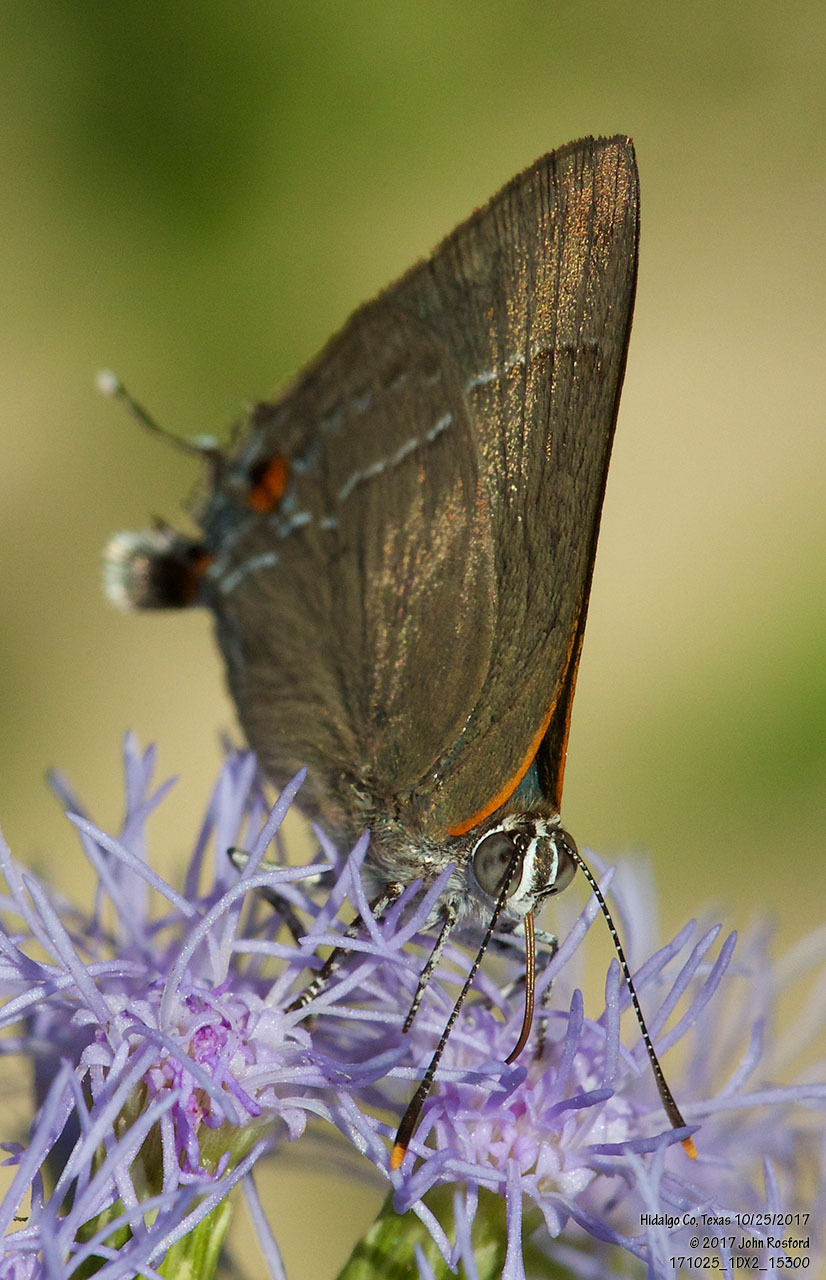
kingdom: Animalia
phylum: Arthropoda
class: Insecta
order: Lepidoptera
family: Lycaenidae
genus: Thecla
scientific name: Thecla marius
